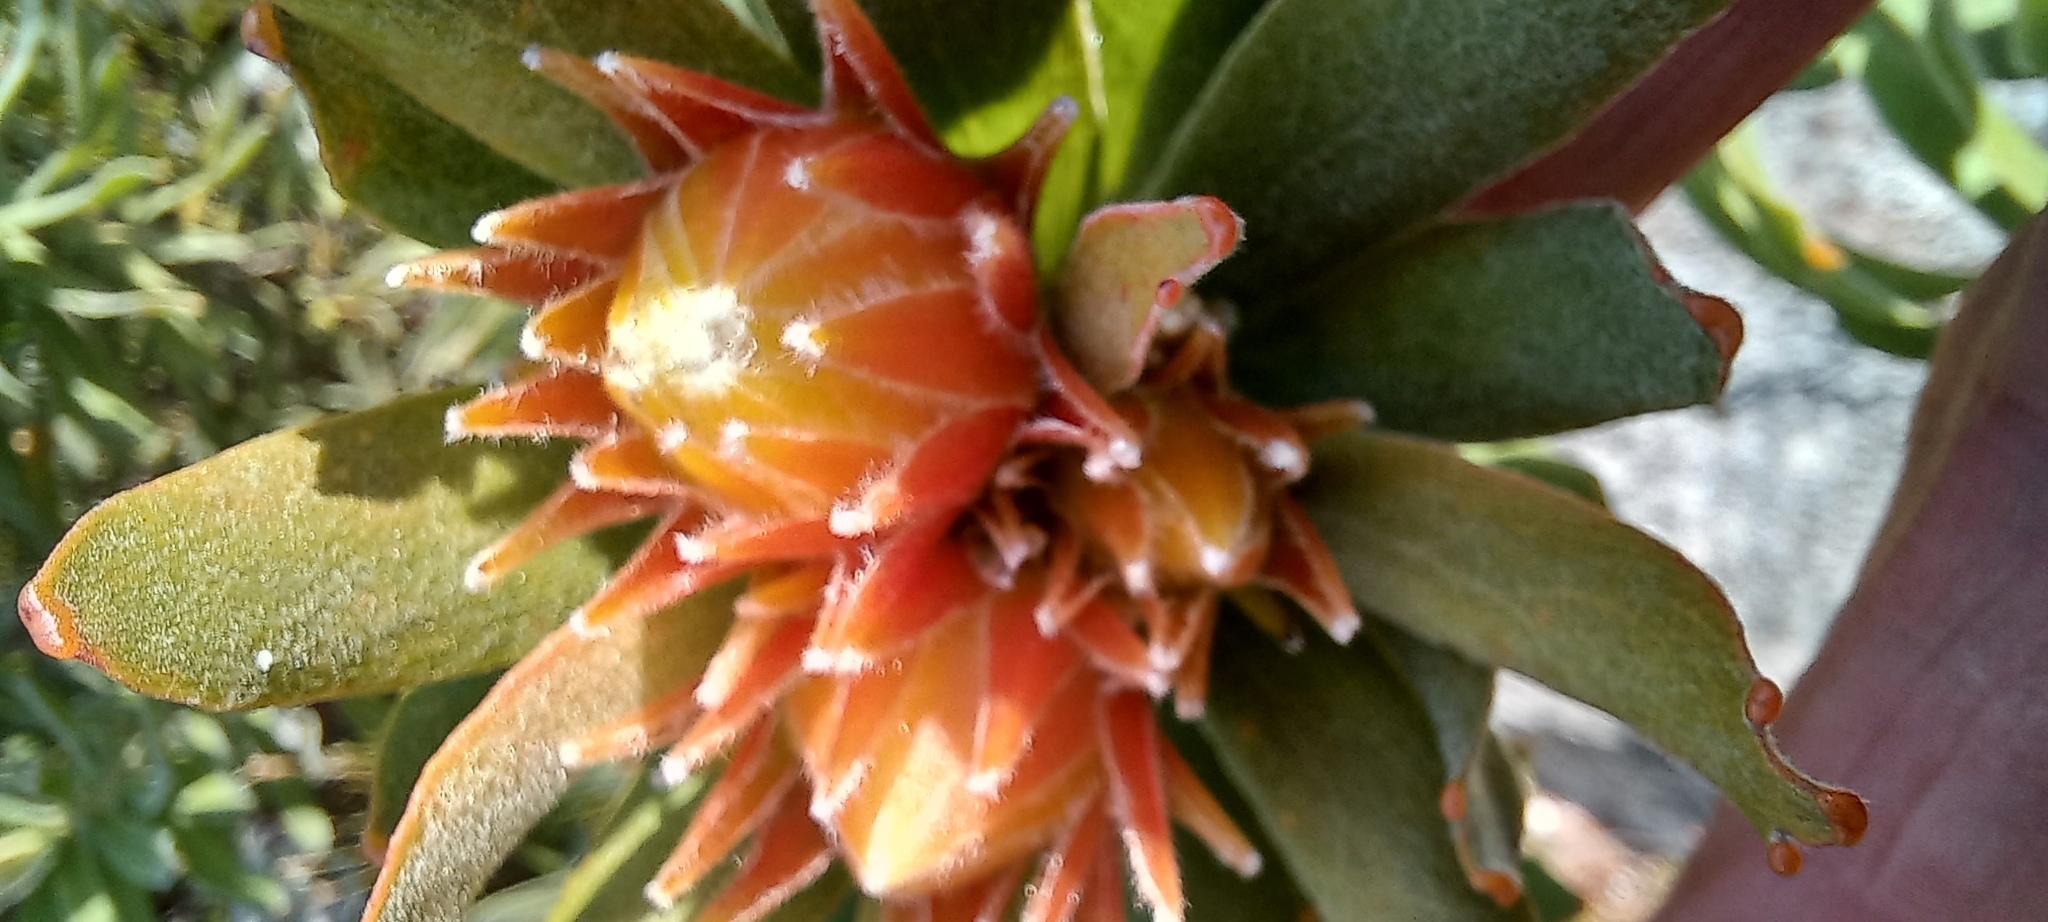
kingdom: Plantae
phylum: Tracheophyta
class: Magnoliopsida
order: Proteales
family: Proteaceae
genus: Leucospermum
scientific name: Leucospermum oleifolium
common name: Matches
